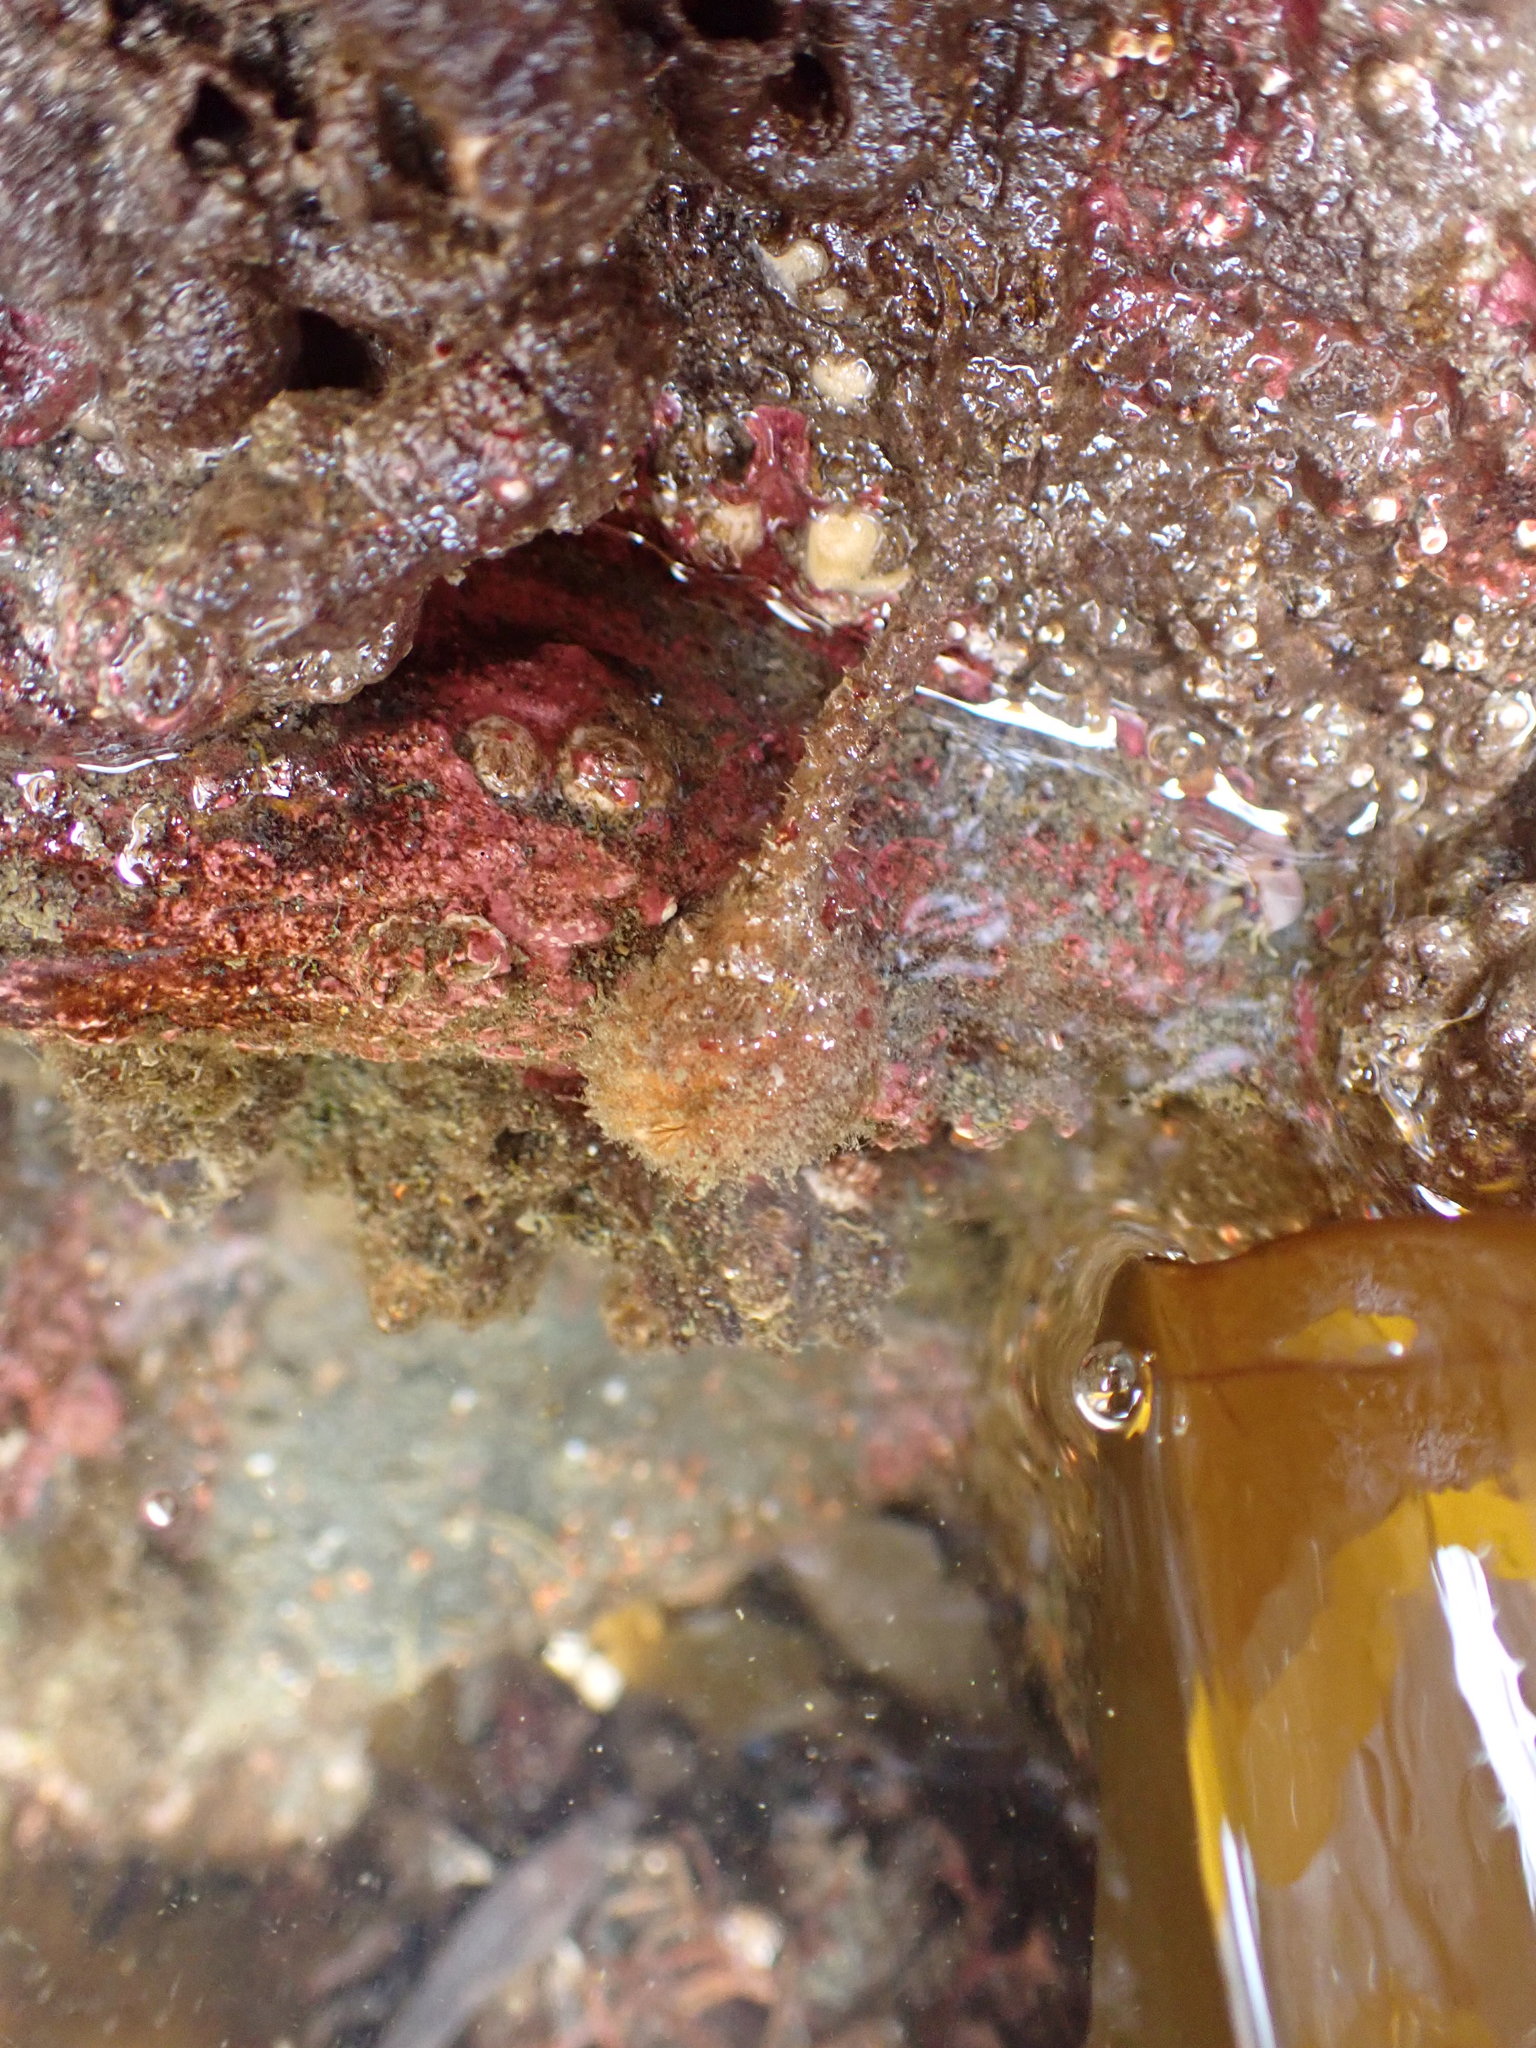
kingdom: Animalia
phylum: Chordata
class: Ascidiacea
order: Stolidobranchia
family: Pyuridae
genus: Boltenia
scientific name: Boltenia villosa
